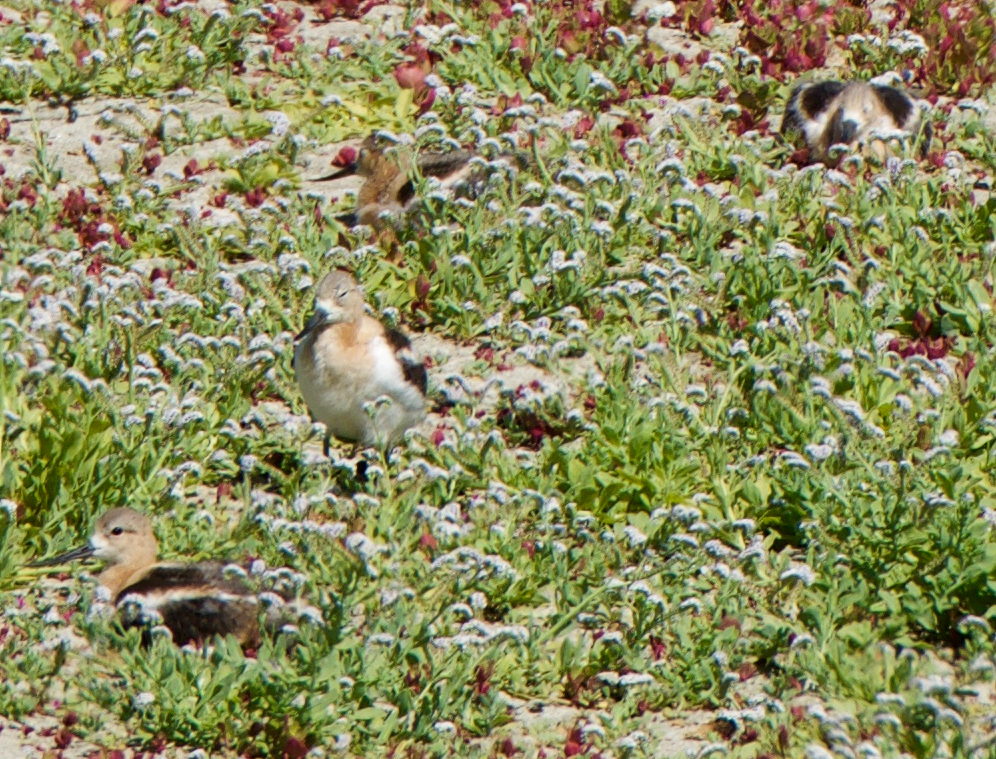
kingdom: Animalia
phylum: Chordata
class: Aves
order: Charadriiformes
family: Recurvirostridae
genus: Recurvirostra
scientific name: Recurvirostra americana
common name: American avocet
